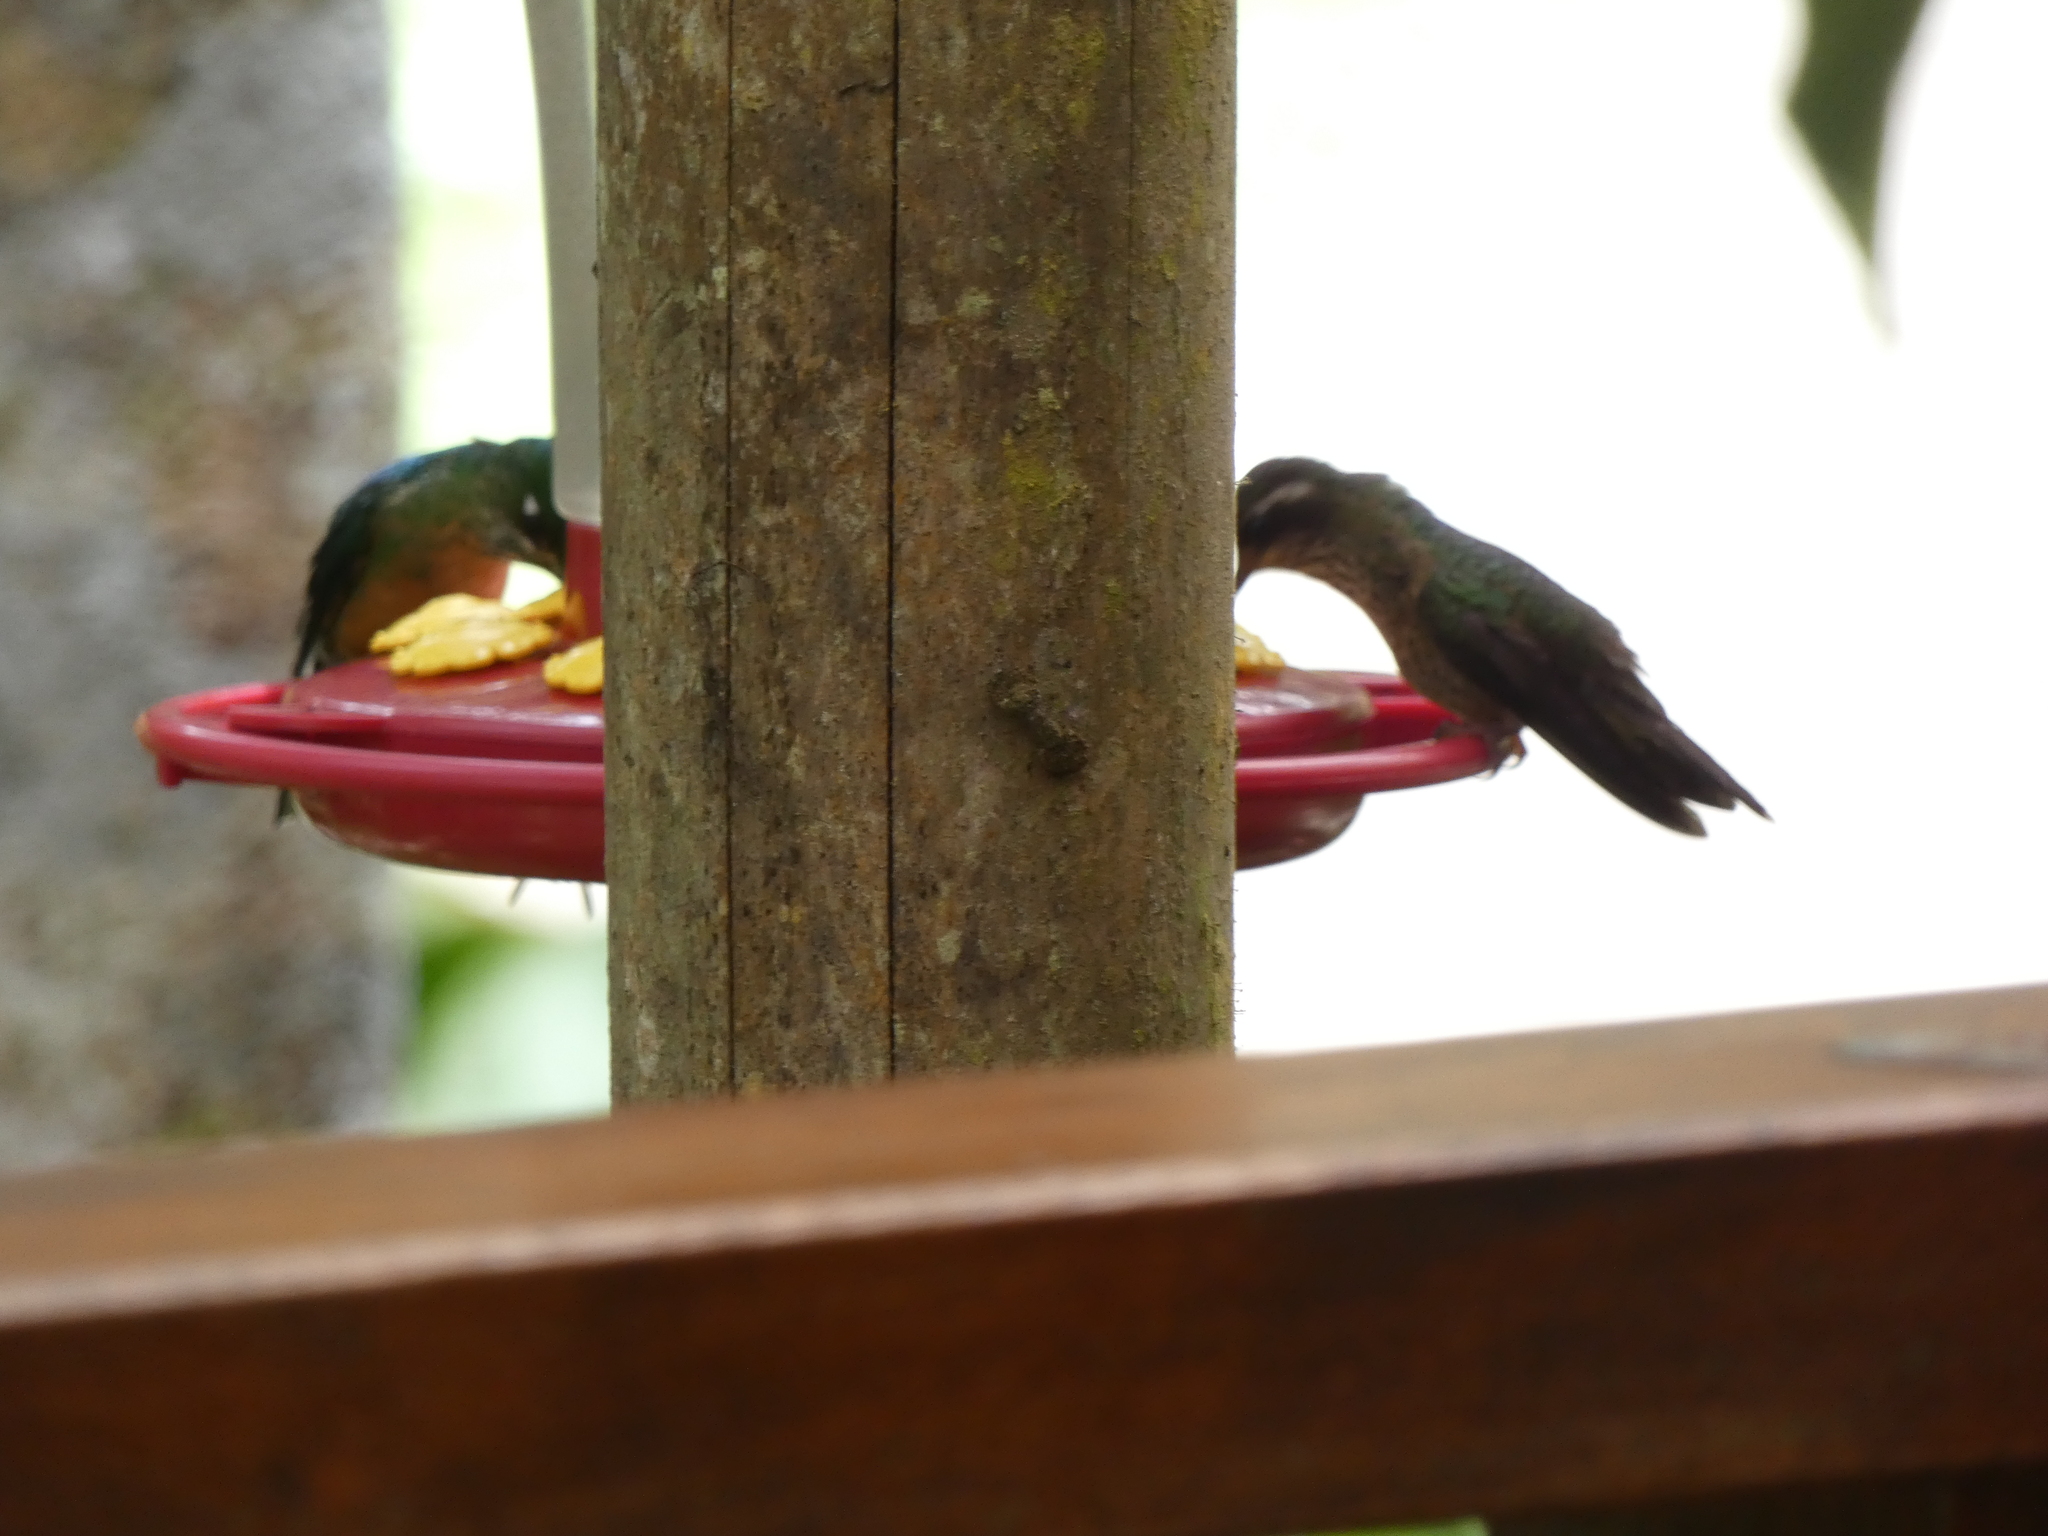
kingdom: Animalia
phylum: Chordata
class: Aves
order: Apodiformes
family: Trochilidae
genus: Adelomyia
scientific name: Adelomyia melanogenys
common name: Speckled hummingbird
